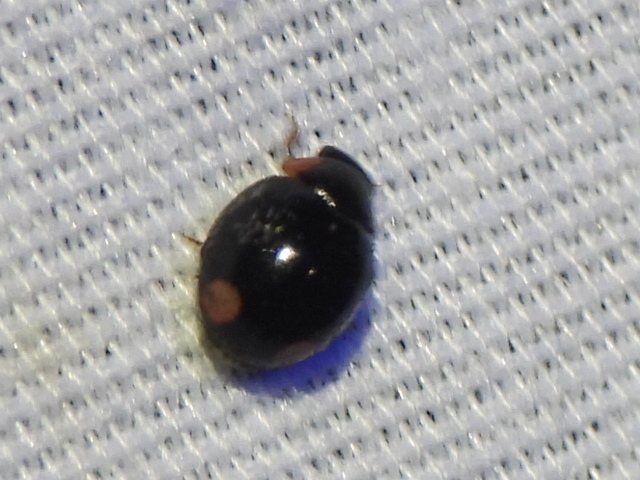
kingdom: Animalia
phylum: Arthropoda
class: Insecta
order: Coleoptera
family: Coccinellidae
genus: Hyperaspis
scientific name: Hyperaspis bigeminata
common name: Bigeminate sigil lady beetle
